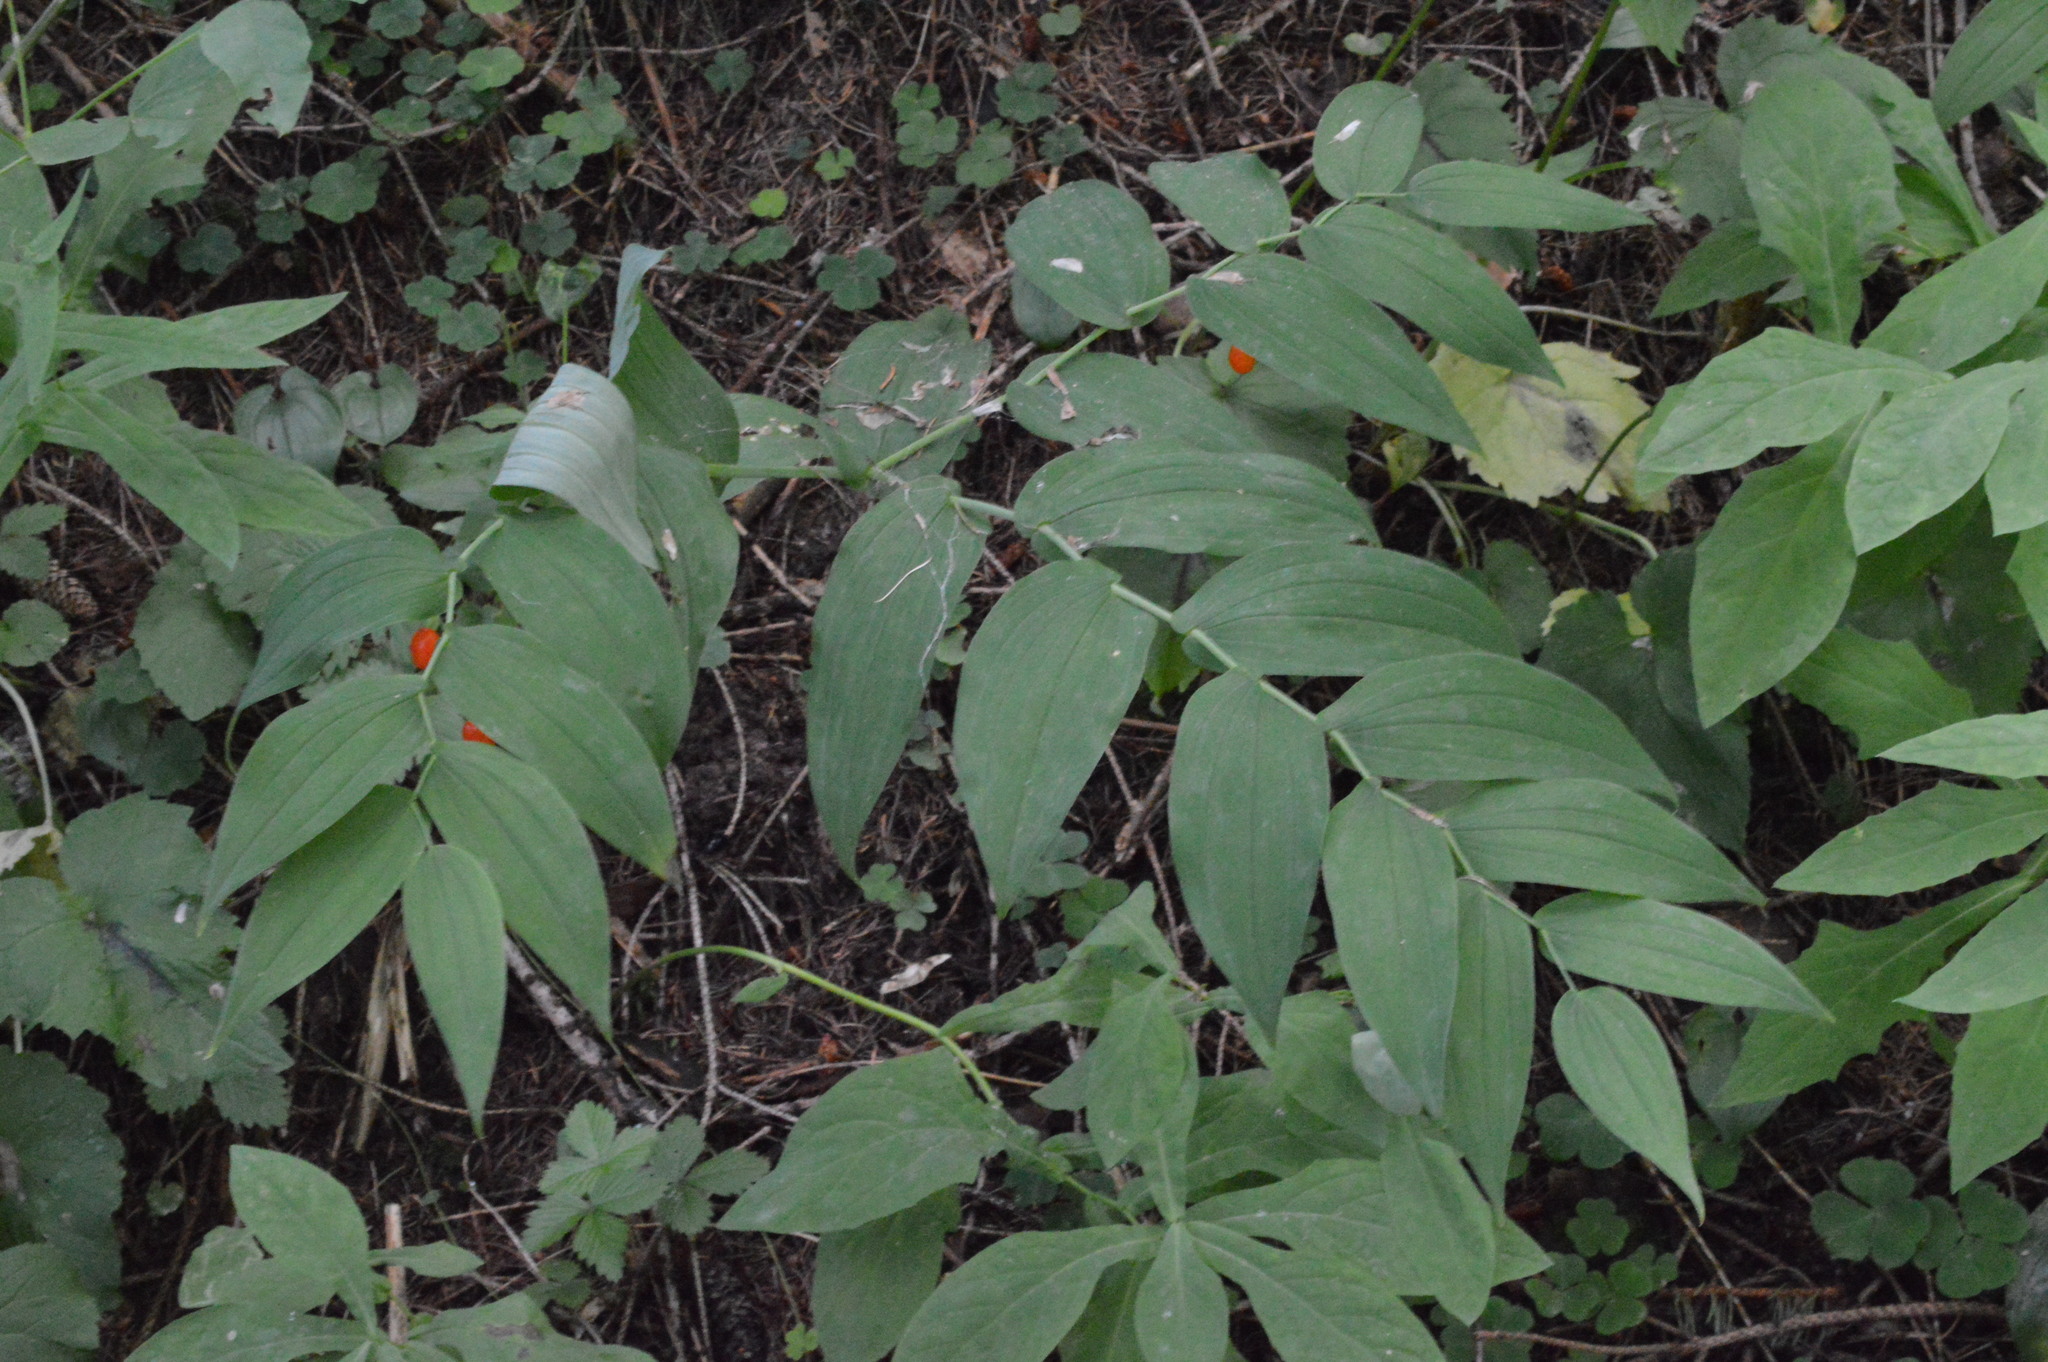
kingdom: Plantae
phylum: Tracheophyta
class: Liliopsida
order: Liliales
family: Liliaceae
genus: Streptopus
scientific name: Streptopus amplexifolius
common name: Clasp twisted stalk
